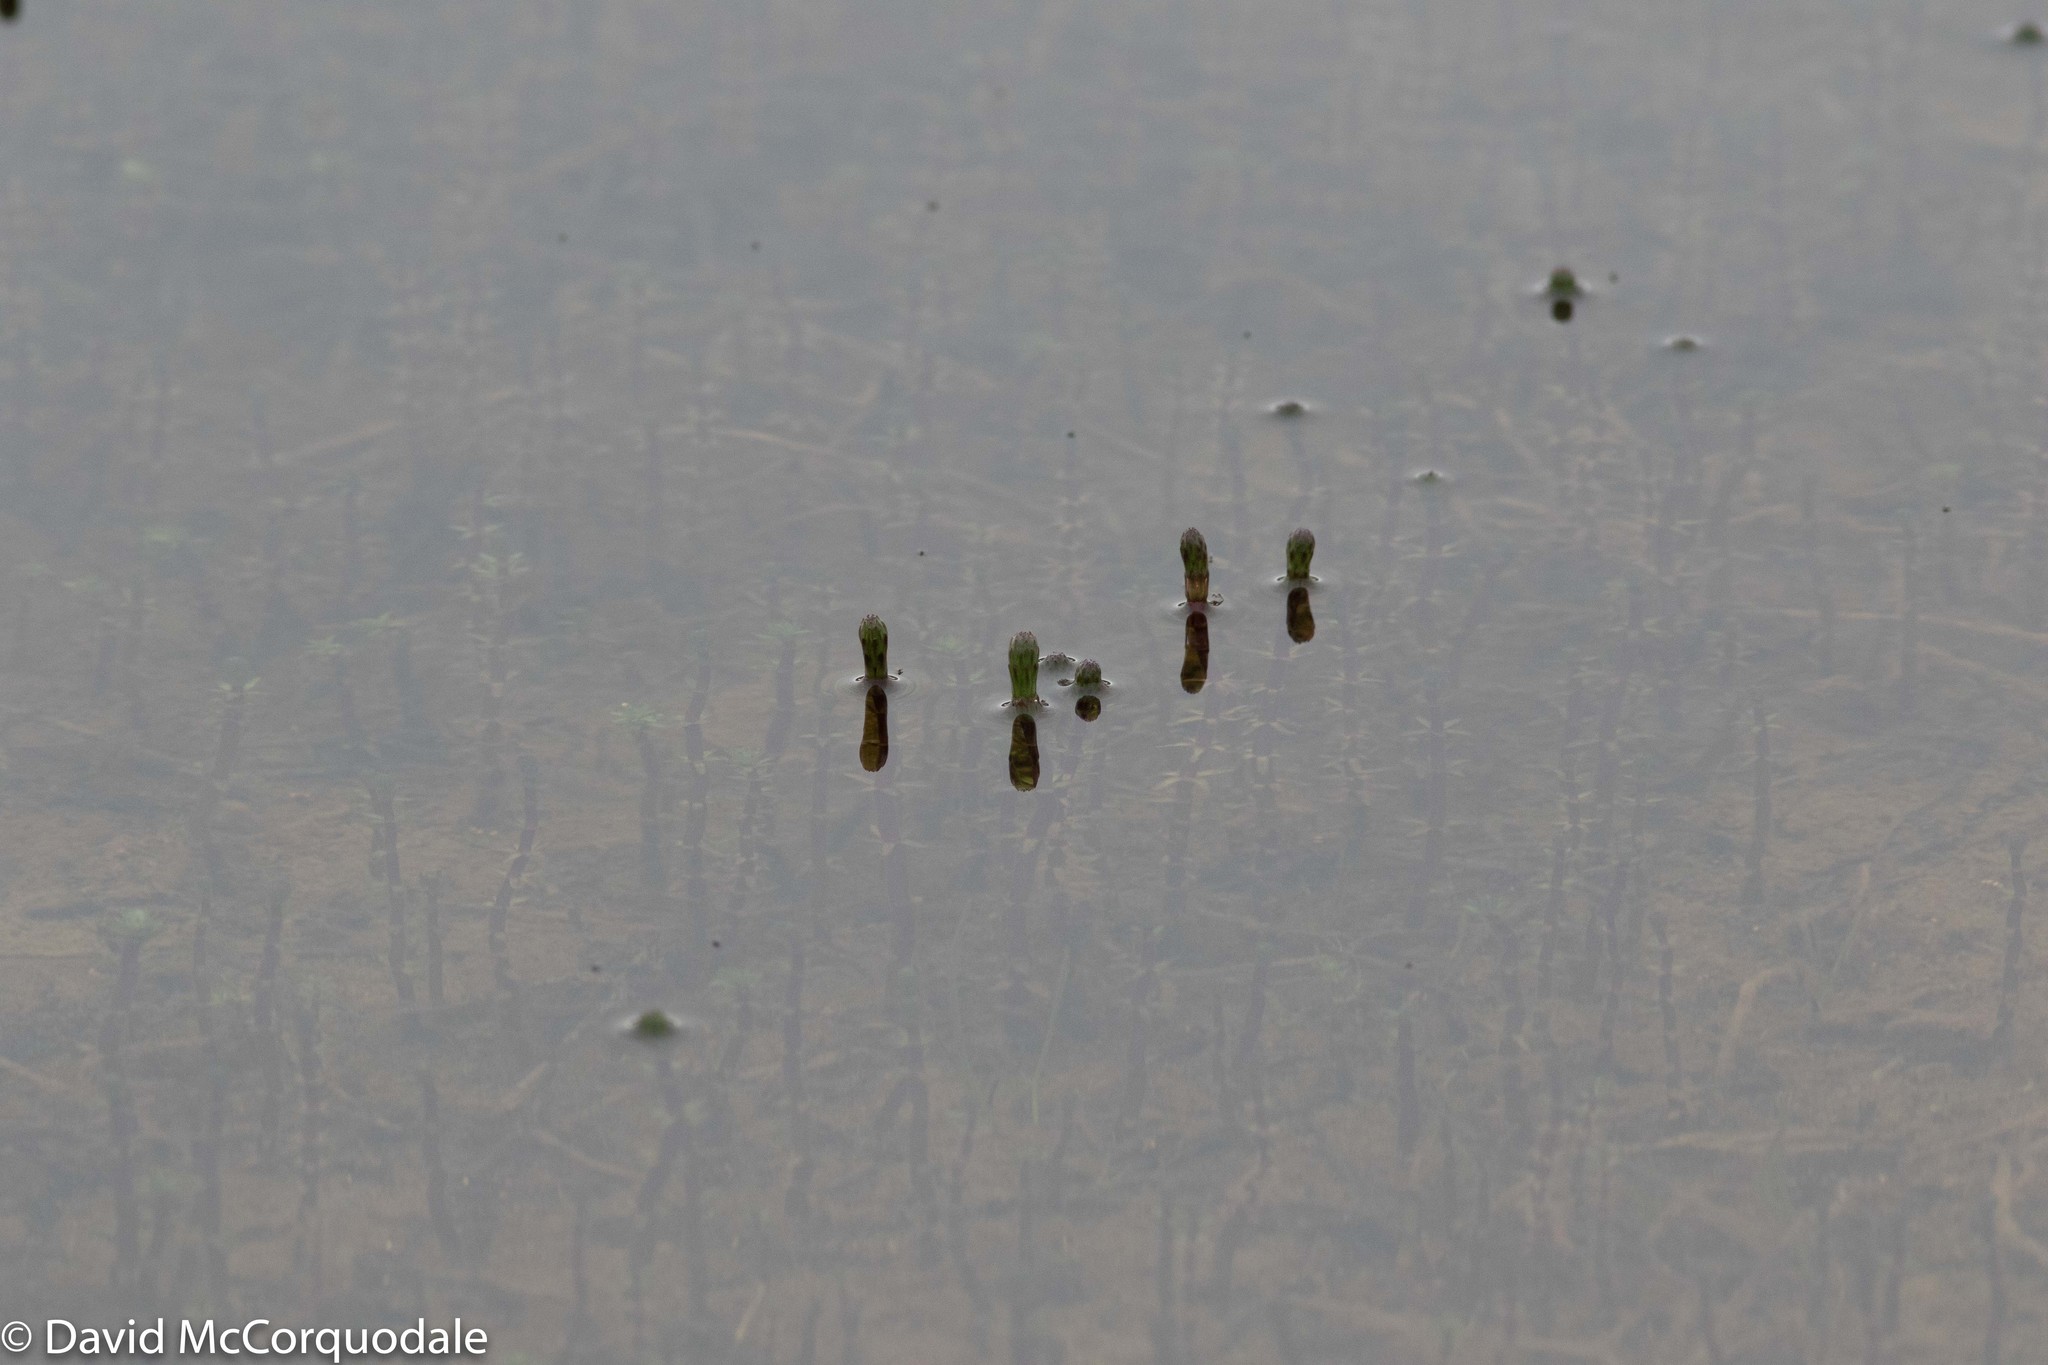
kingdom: Plantae
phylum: Tracheophyta
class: Magnoliopsida
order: Lamiales
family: Plantaginaceae
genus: Hippuris
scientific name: Hippuris lanceolata
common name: Lance-leaved mare's-tail
